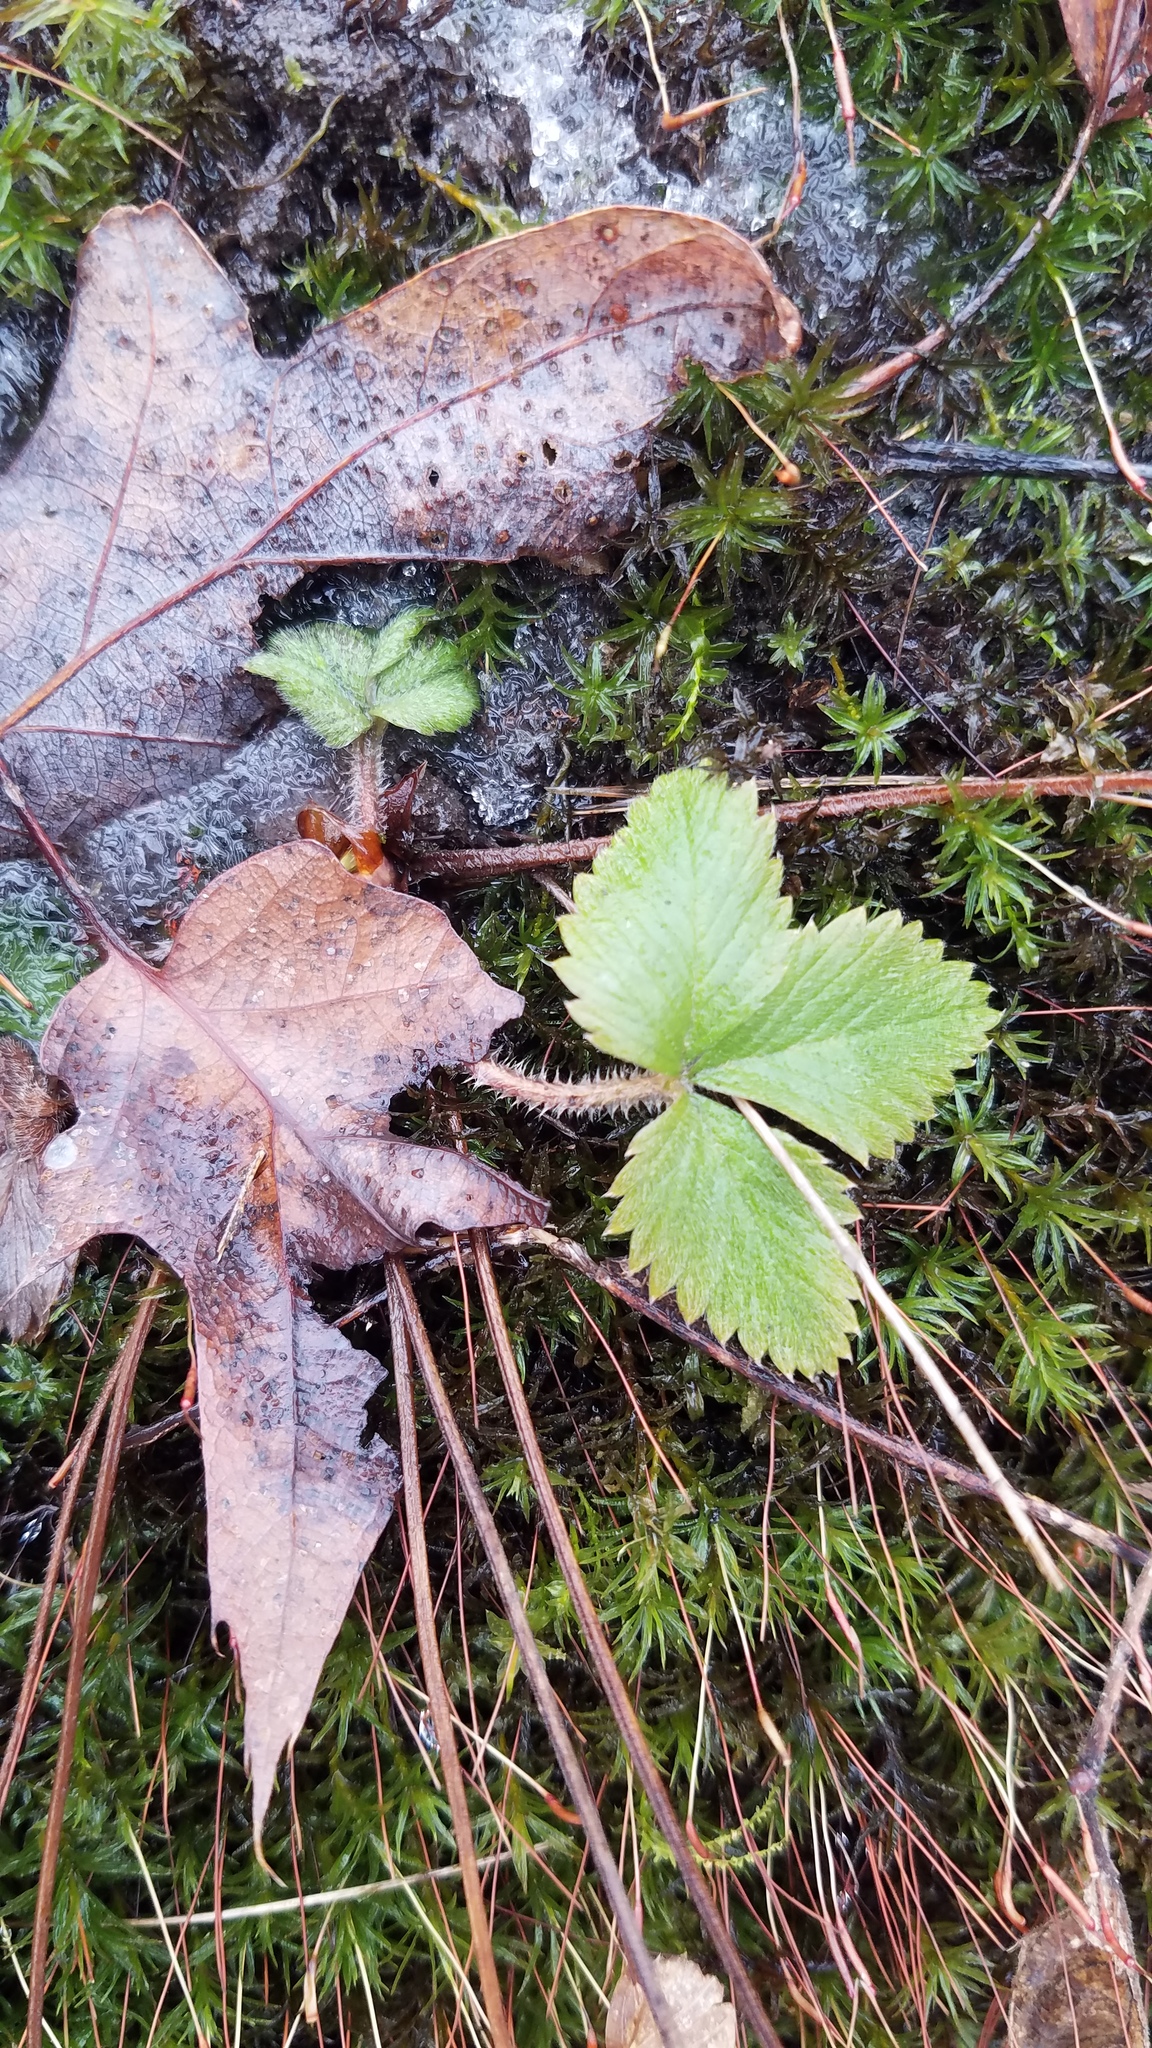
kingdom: Plantae
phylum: Tracheophyta
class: Magnoliopsida
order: Rosales
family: Rosaceae
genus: Fragaria
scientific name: Fragaria vesca
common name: Wild strawberry
